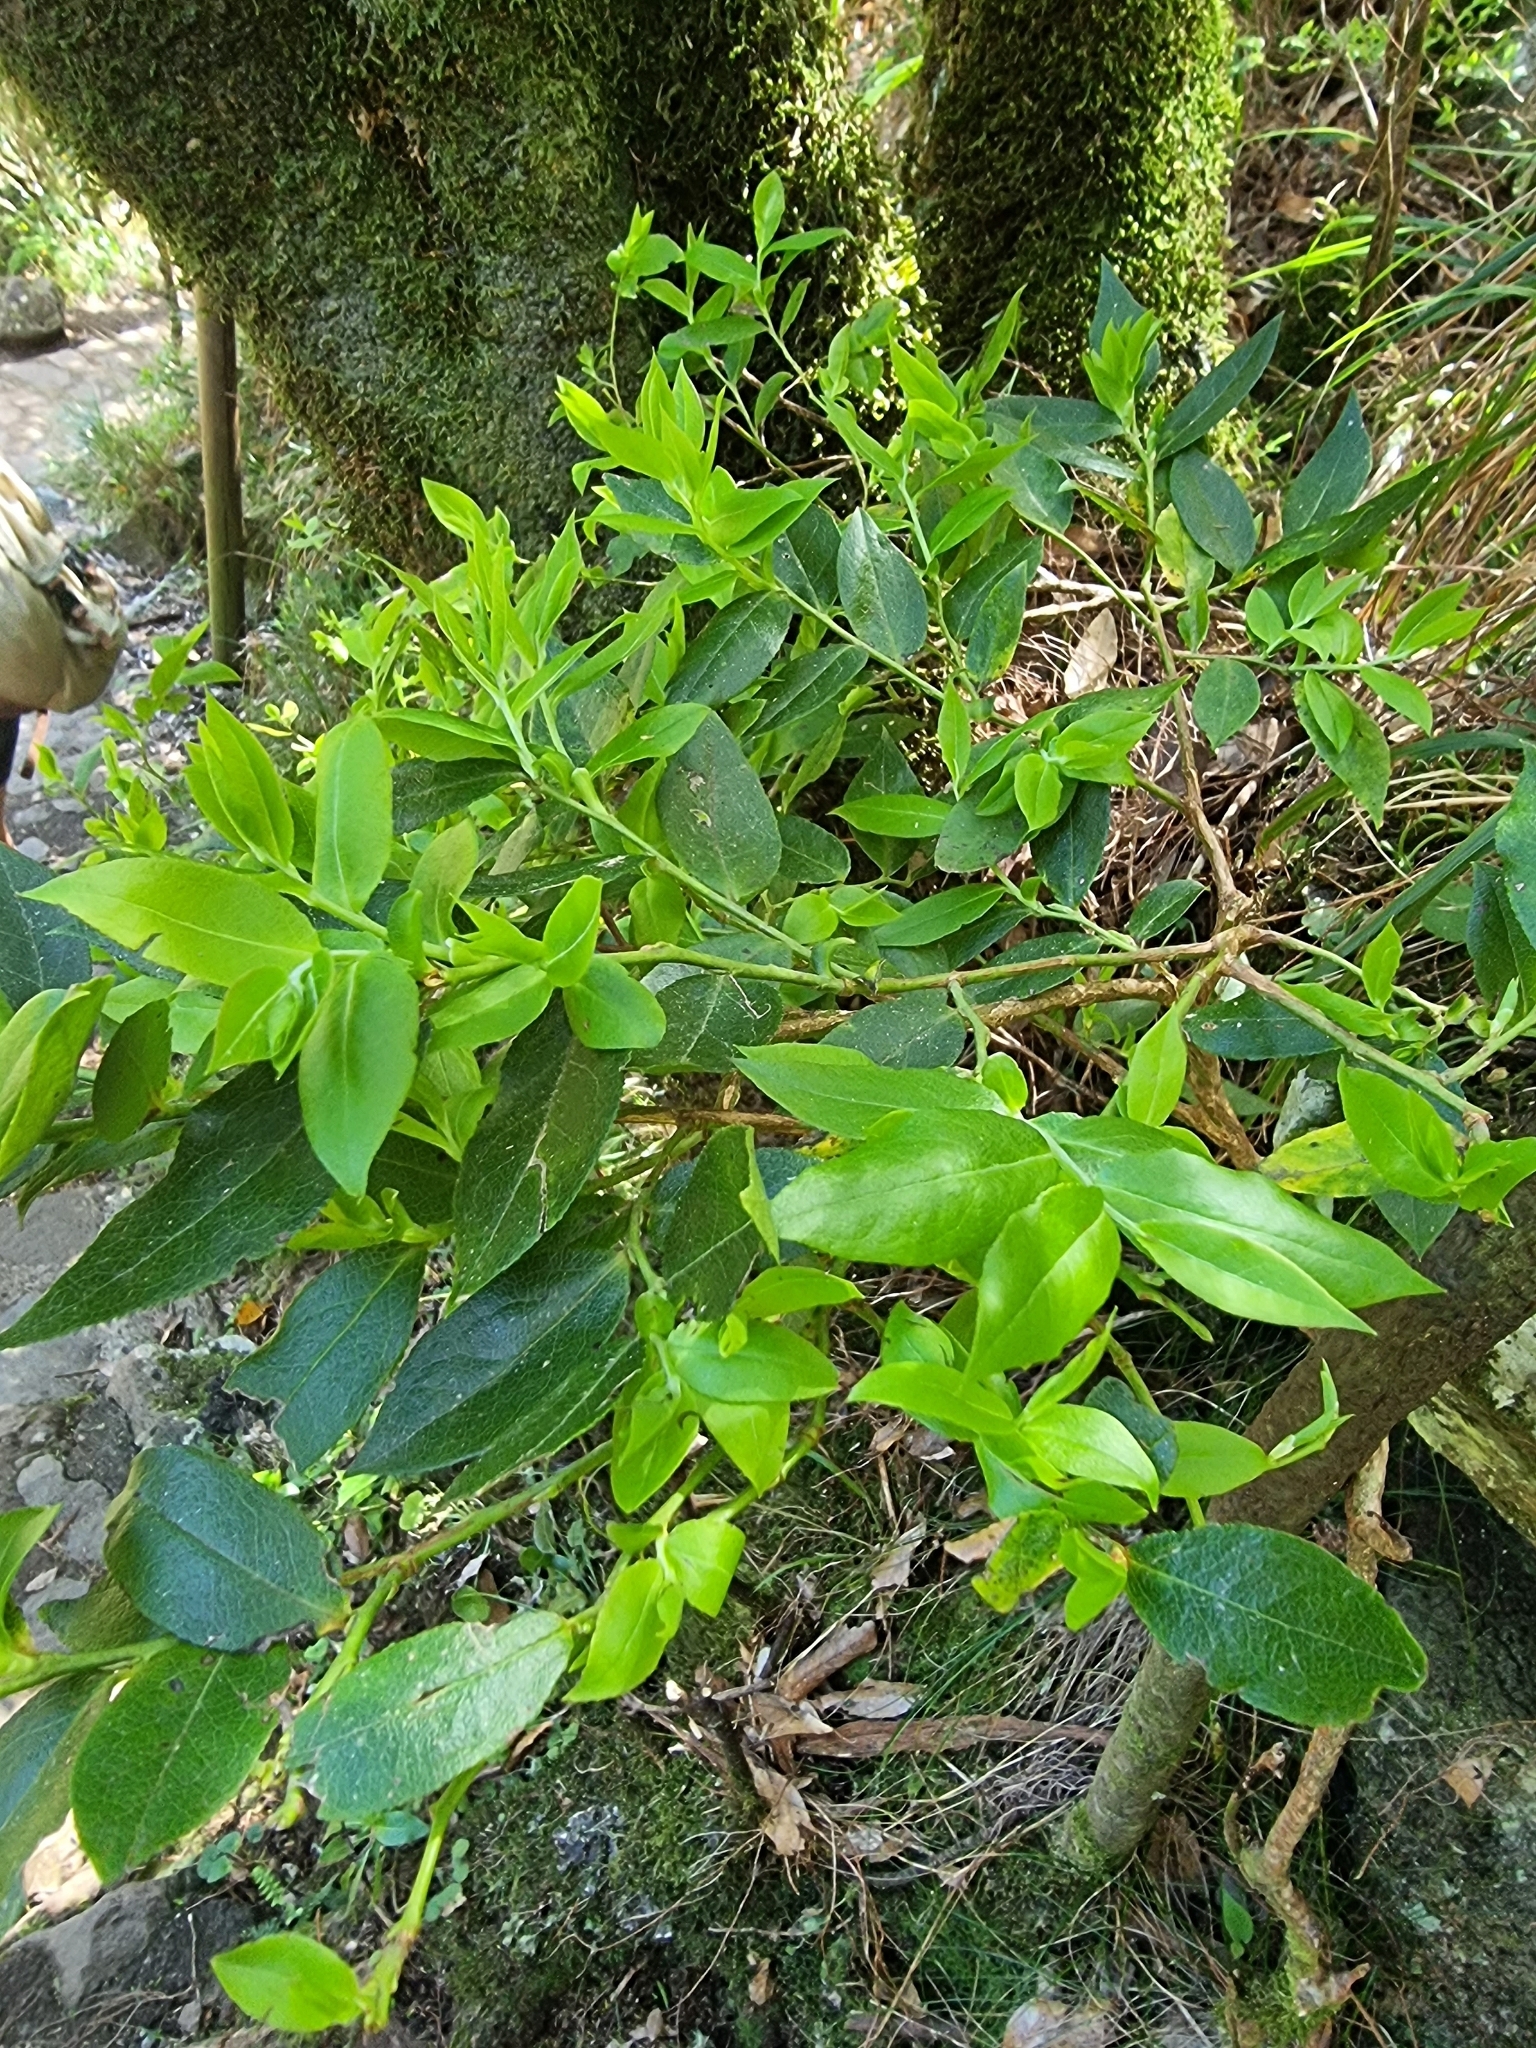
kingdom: Plantae
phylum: Tracheophyta
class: Magnoliopsida
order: Ericales
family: Ericaceae
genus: Vaccinium
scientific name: Vaccinium padifolium
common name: Madeiran blueberry
